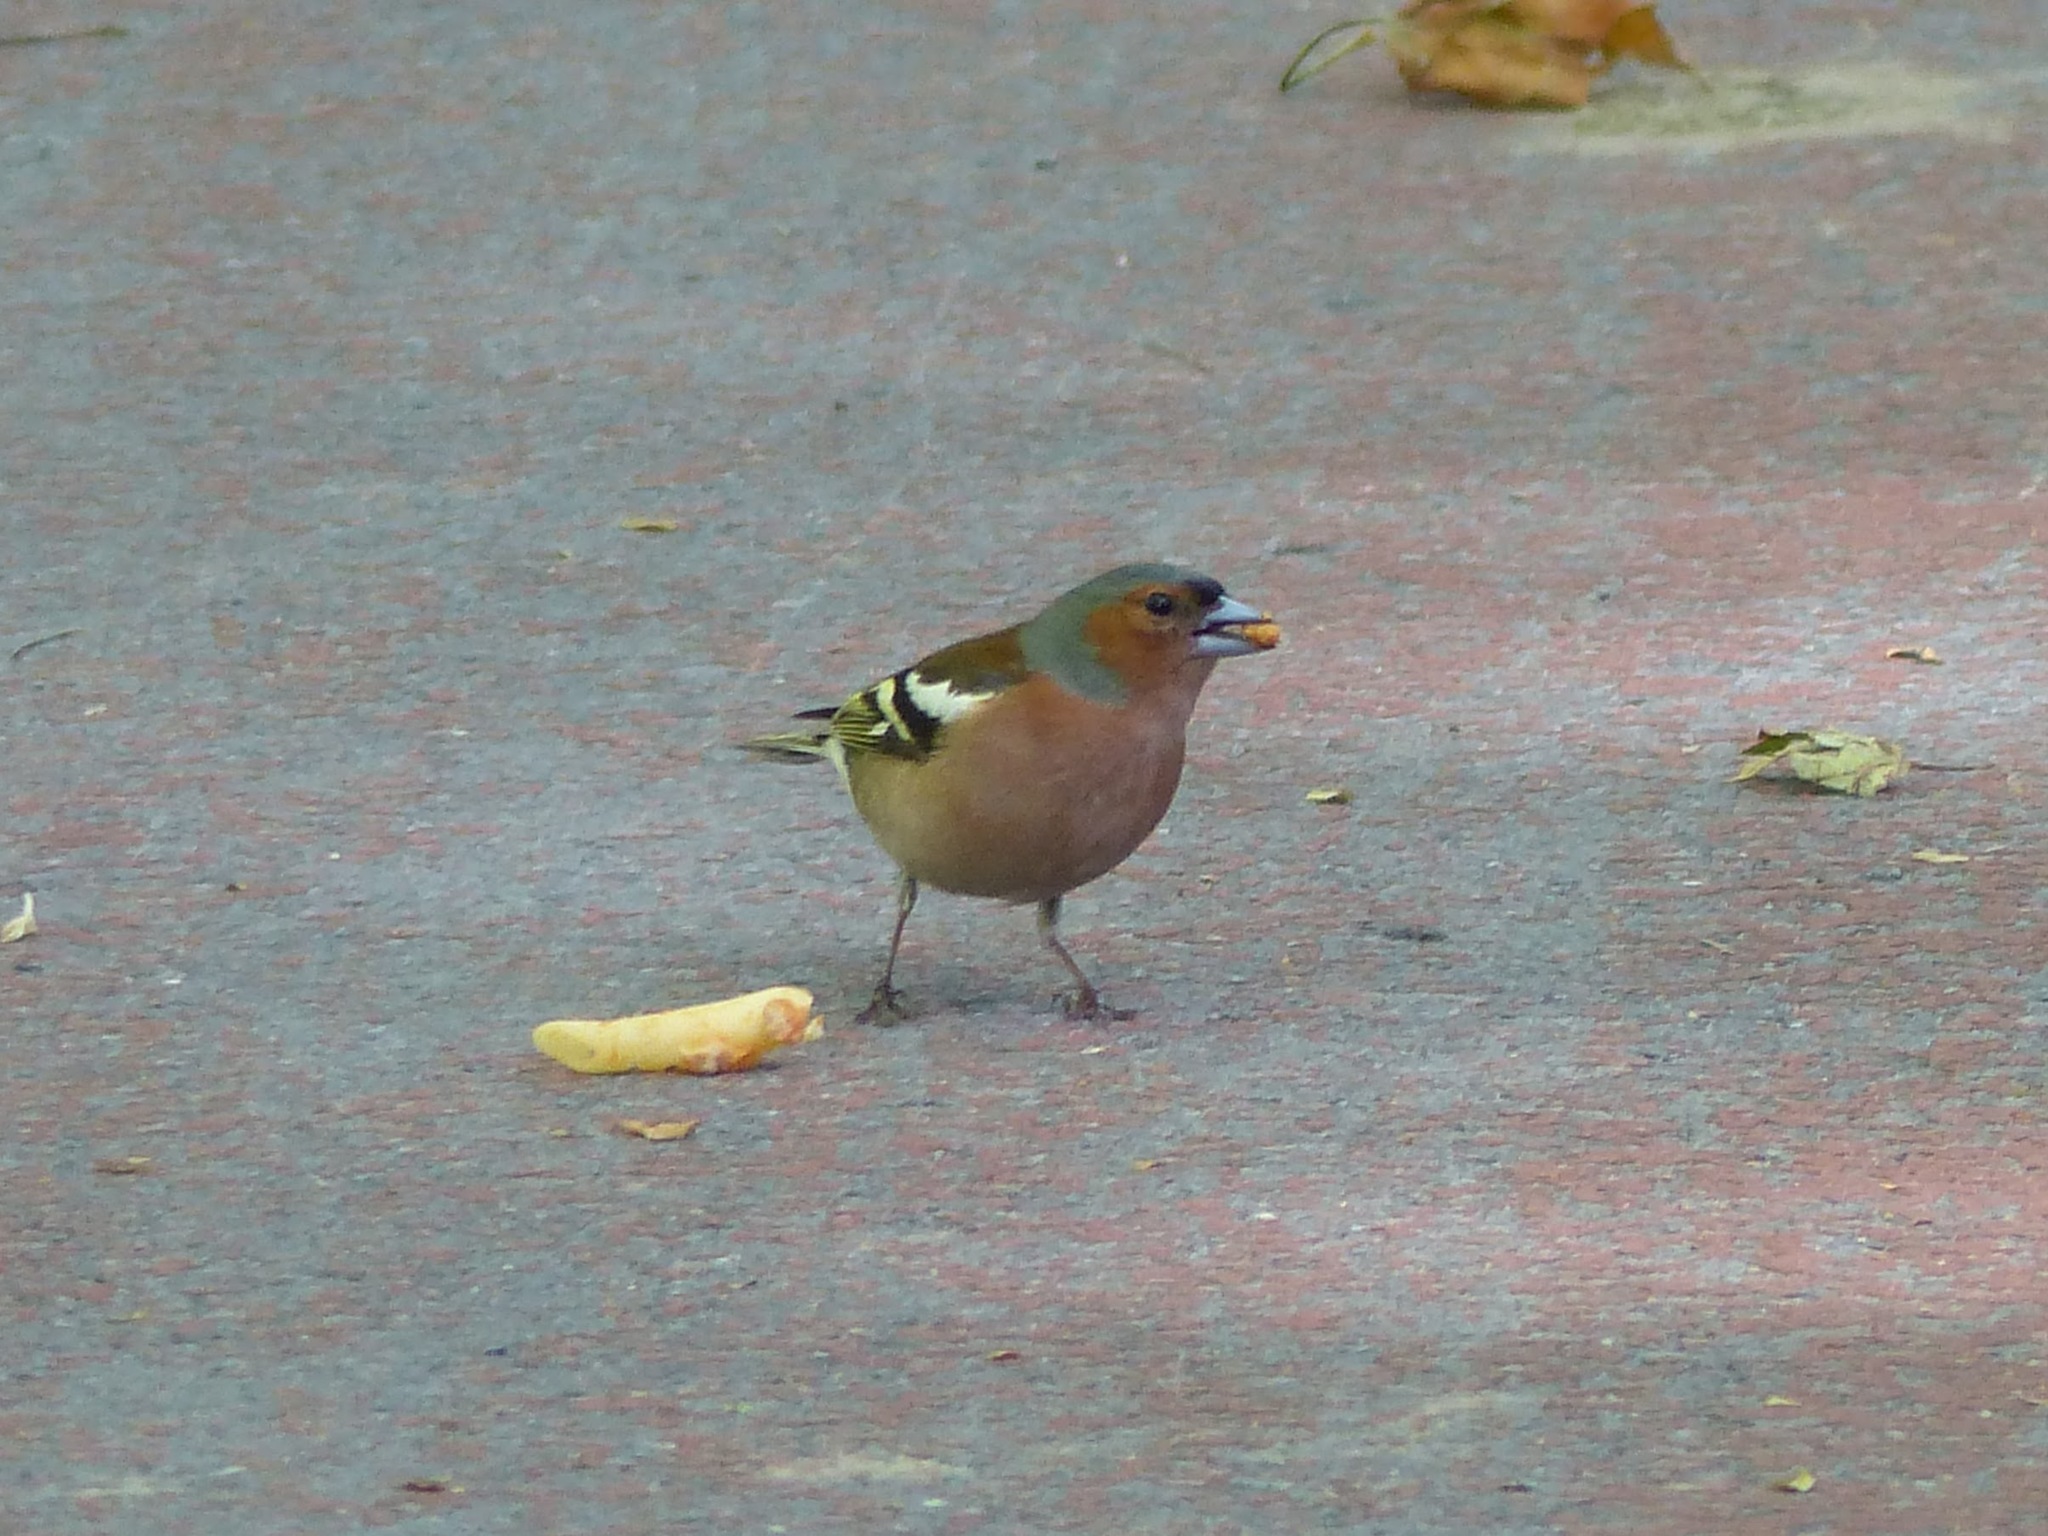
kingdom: Animalia
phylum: Chordata
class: Aves
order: Passeriformes
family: Fringillidae
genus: Fringilla
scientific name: Fringilla coelebs
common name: Common chaffinch
